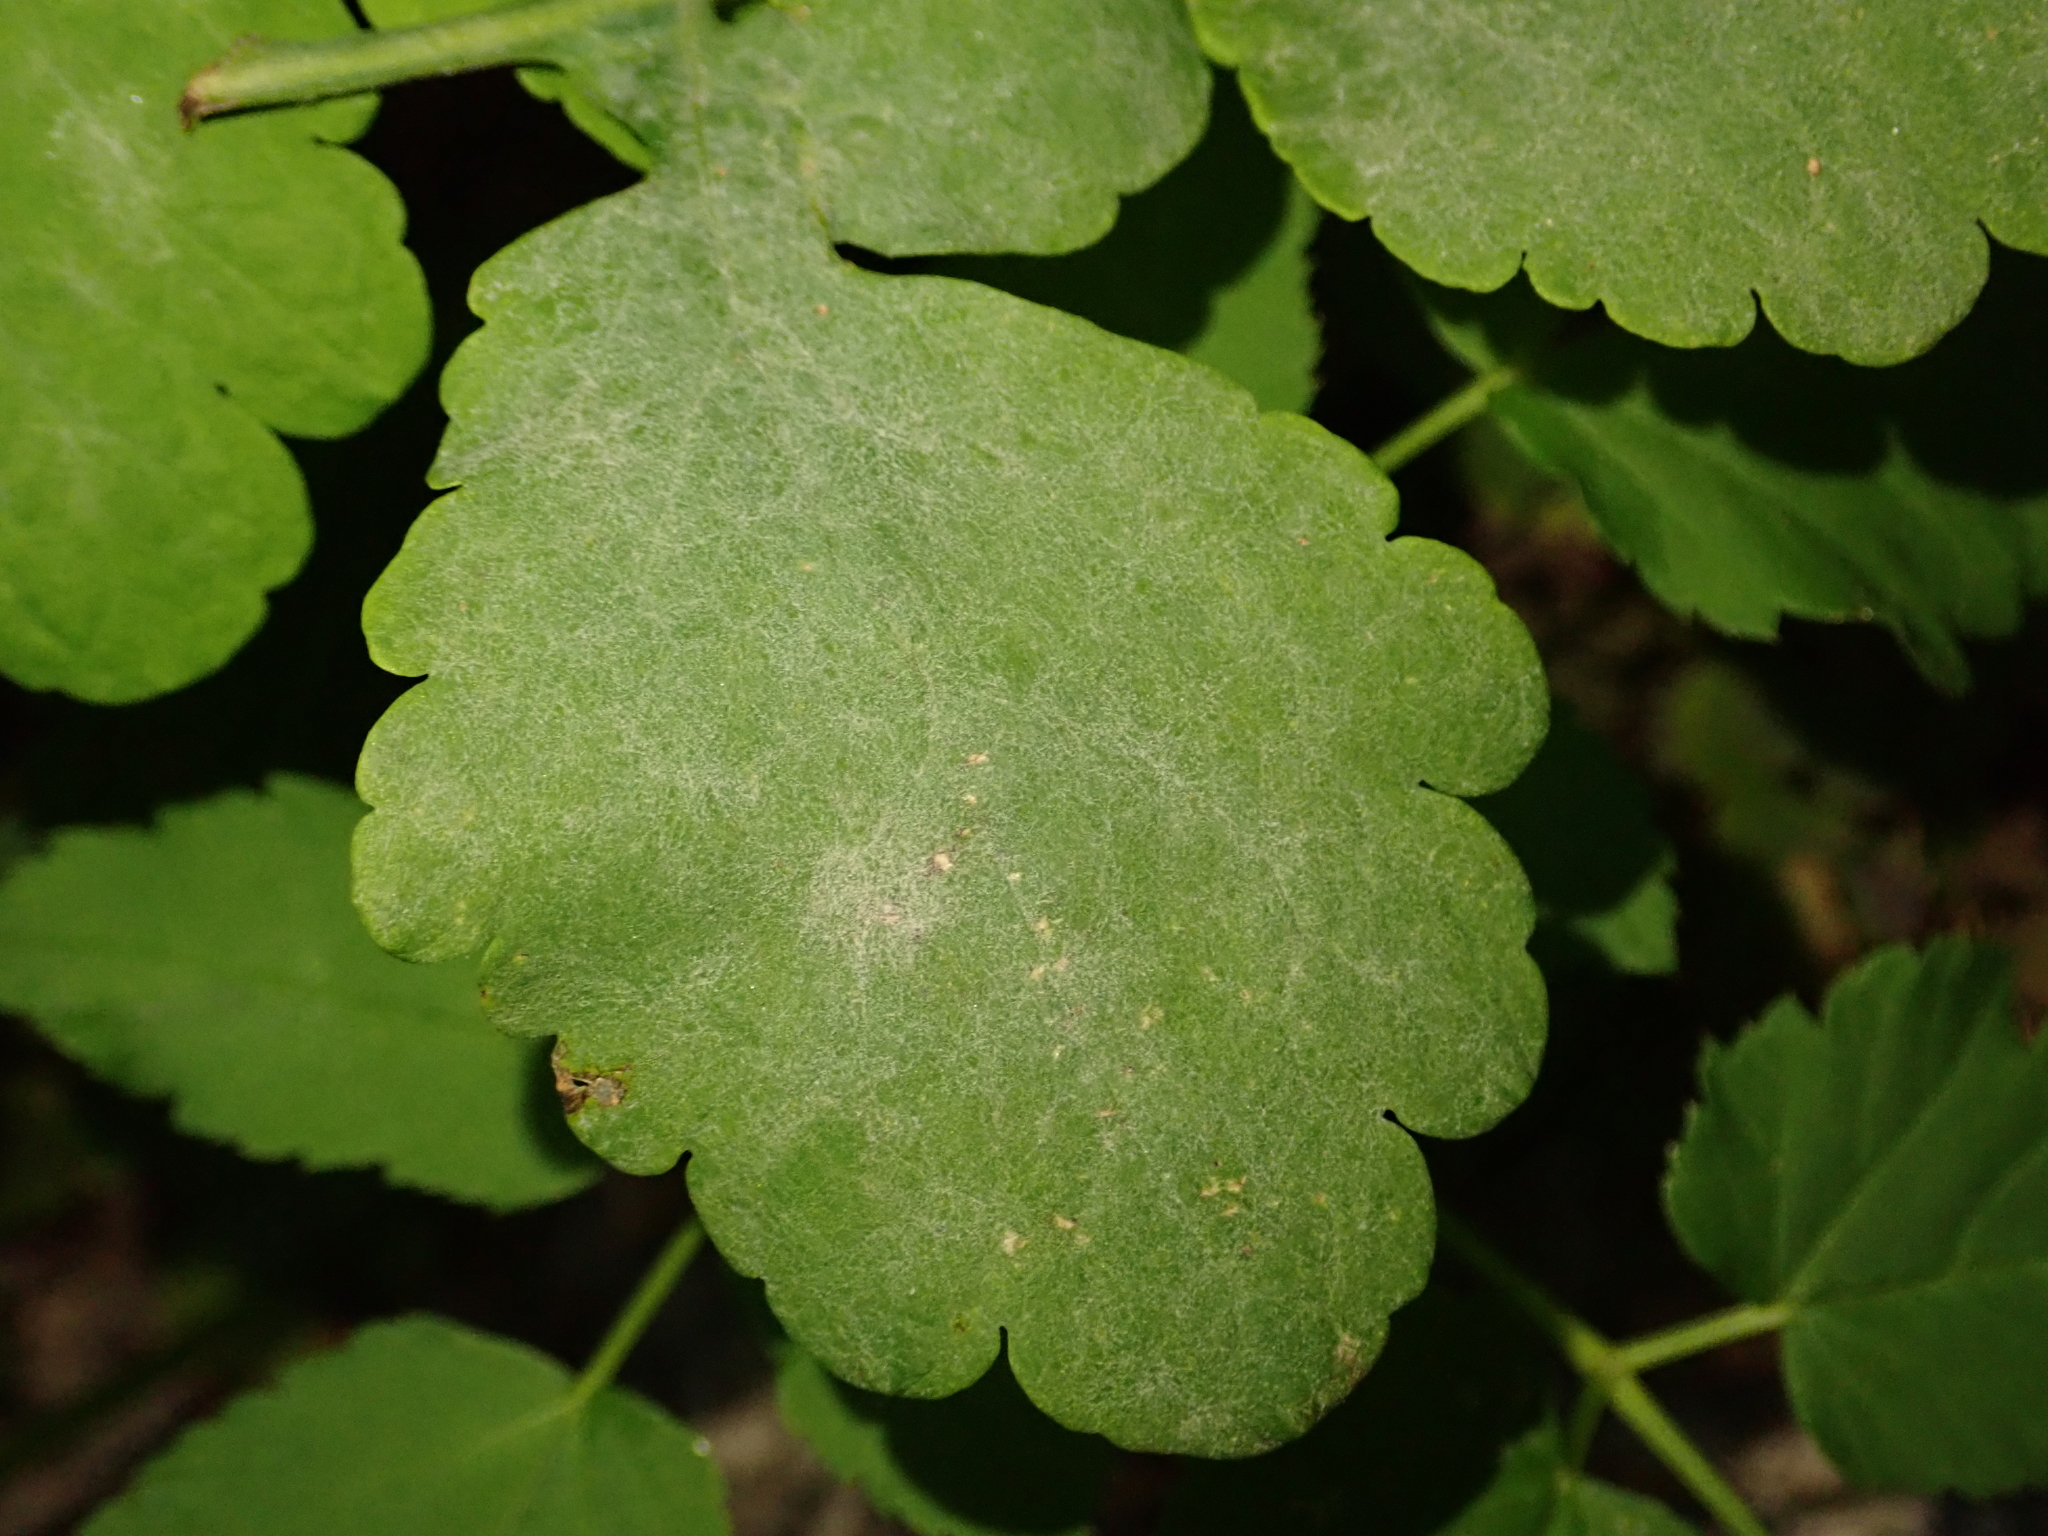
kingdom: Fungi
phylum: Ascomycota
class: Leotiomycetes
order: Helotiales
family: Erysiphaceae
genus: Erysiphe
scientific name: Erysiphe macleayae
